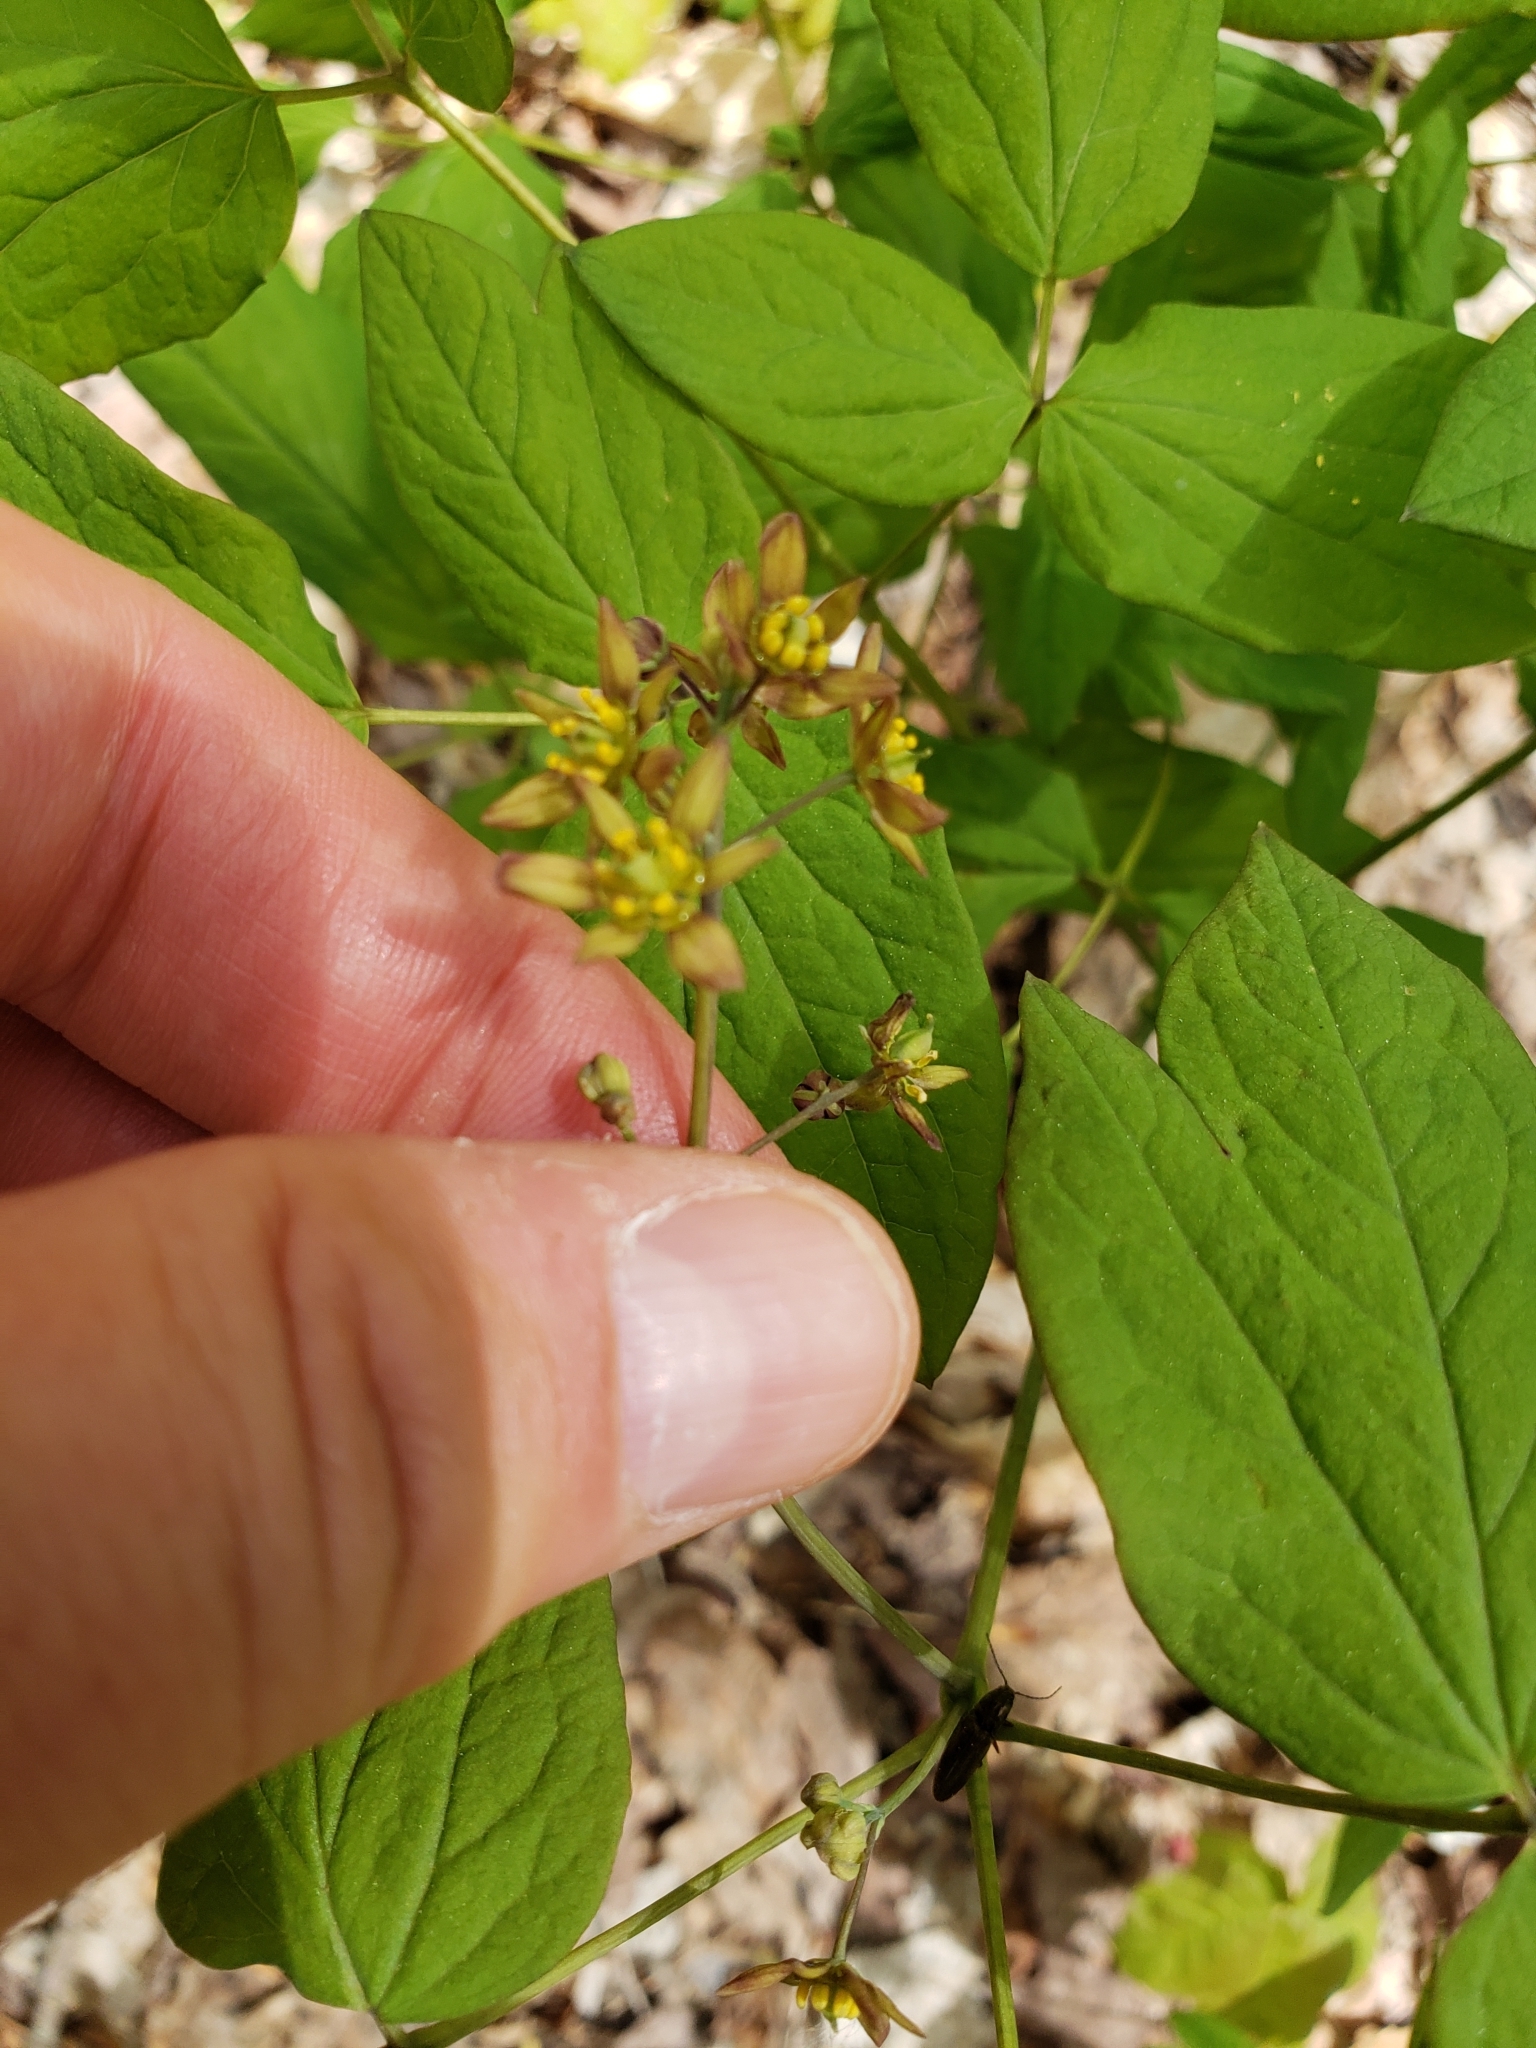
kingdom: Plantae
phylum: Tracheophyta
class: Magnoliopsida
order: Ranunculales
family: Berberidaceae
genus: Caulophyllum
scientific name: Caulophyllum thalictroides
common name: Blue cohosh
